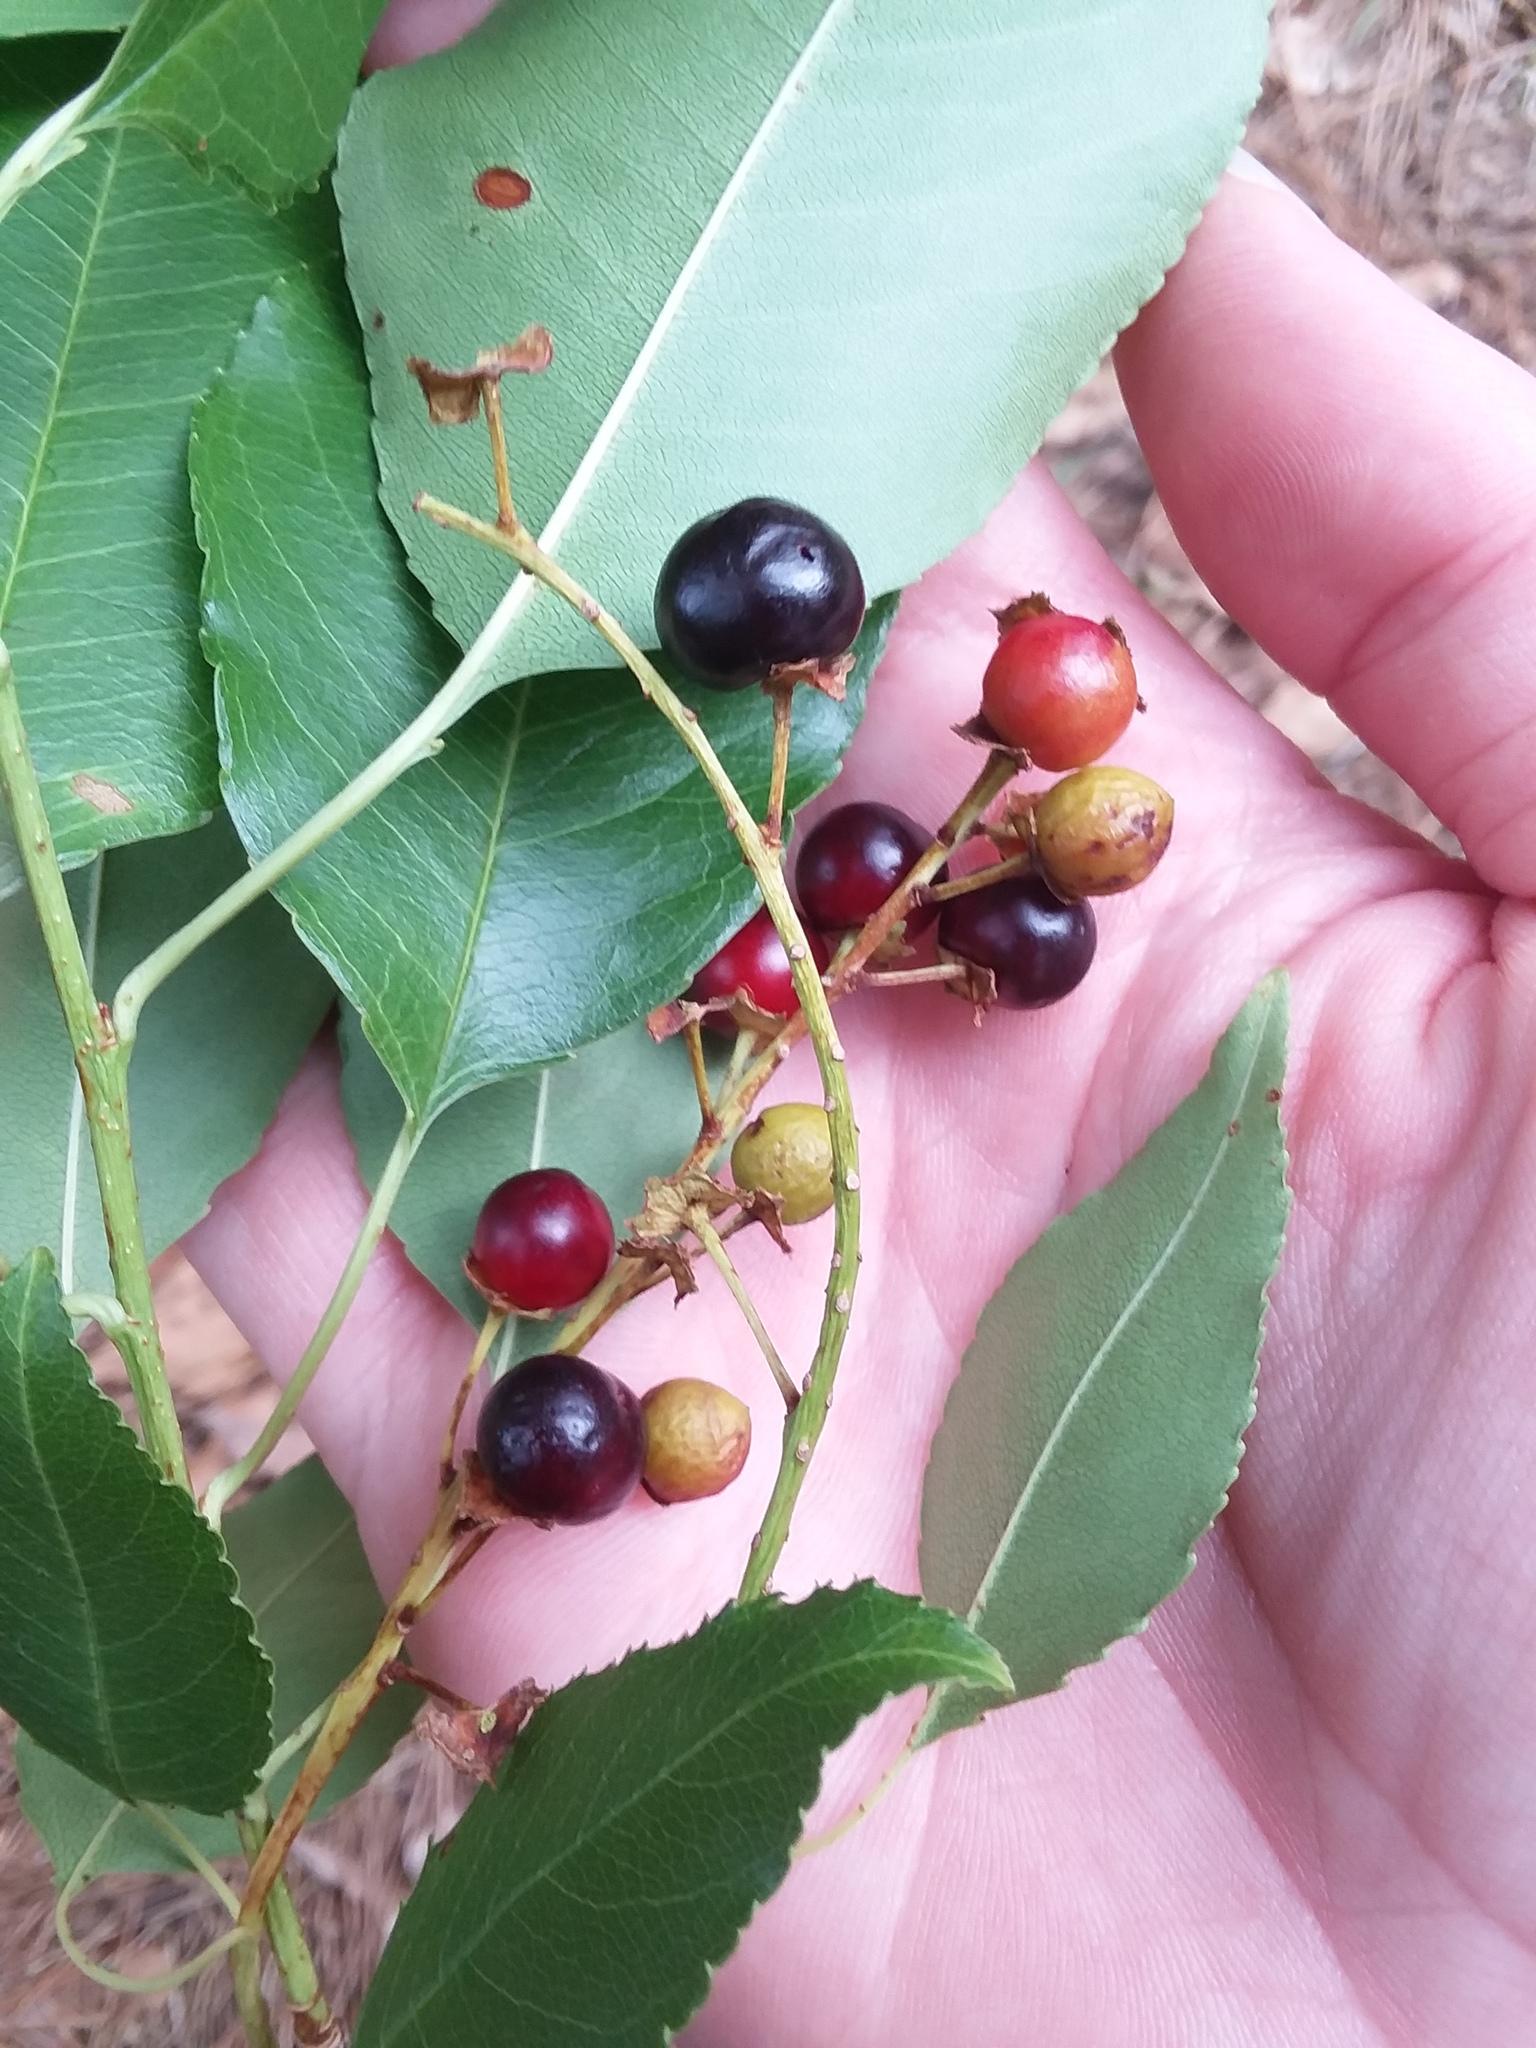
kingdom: Plantae
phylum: Tracheophyta
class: Magnoliopsida
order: Rosales
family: Rosaceae
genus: Prunus
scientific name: Prunus serotina
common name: Black cherry
